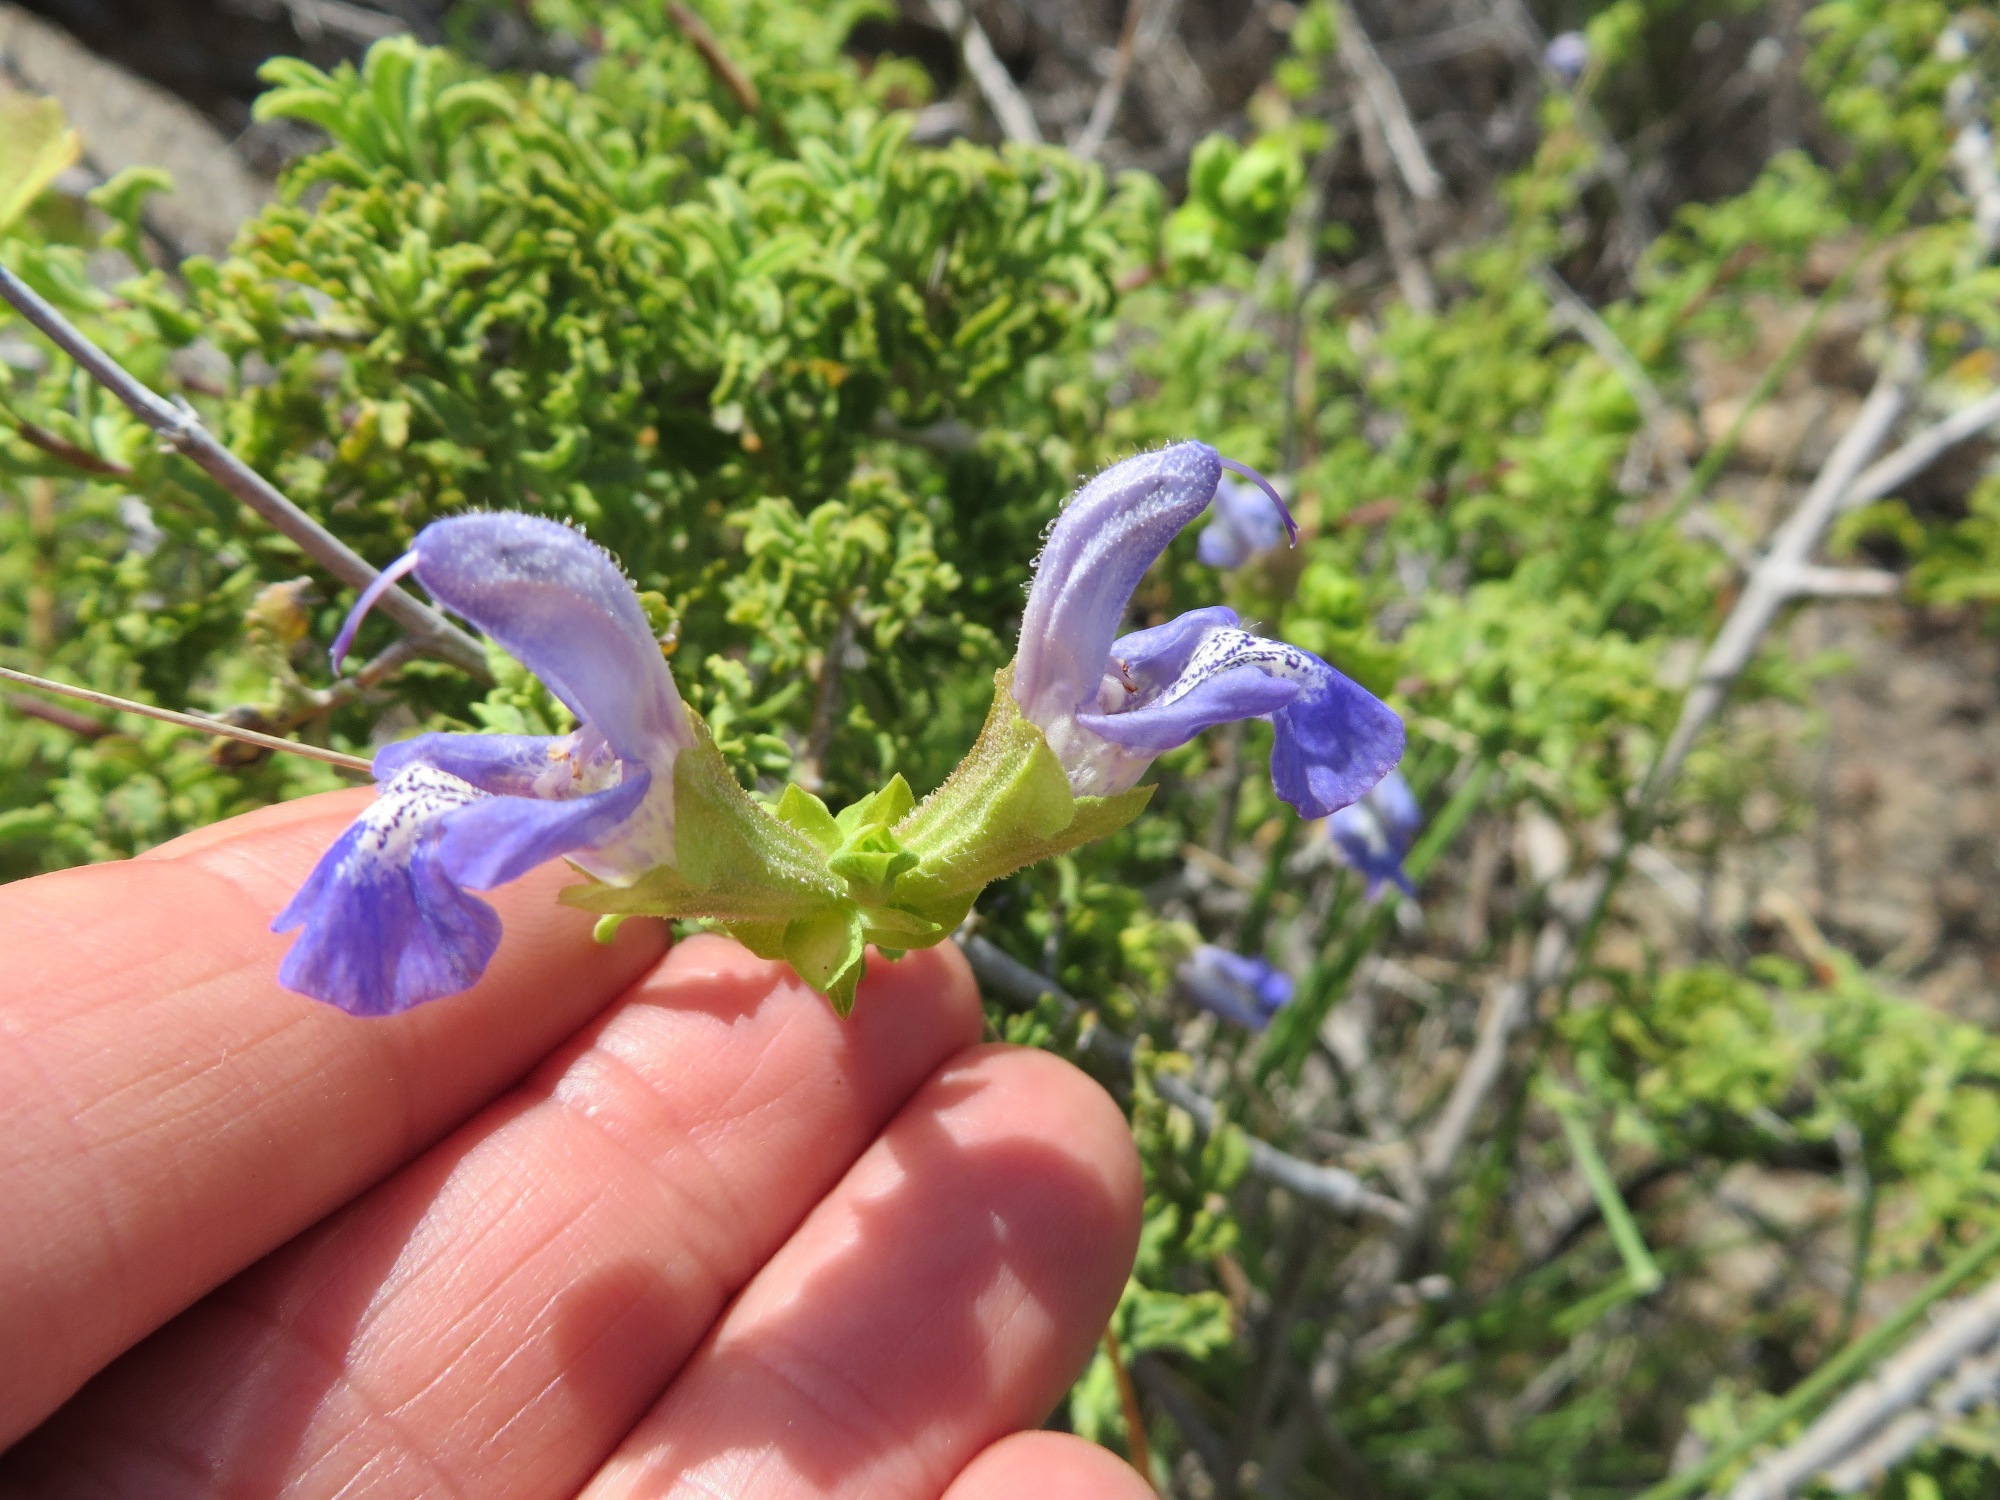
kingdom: Plantae
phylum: Tracheophyta
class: Magnoliopsida
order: Lamiales
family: Lamiaceae
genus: Salvia
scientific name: Salvia dentata
